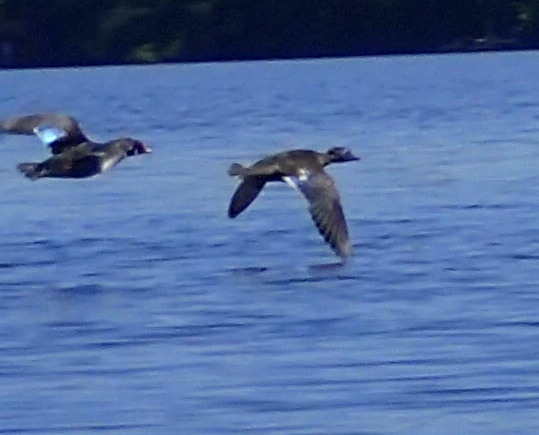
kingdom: Animalia
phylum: Chordata
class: Aves
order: Anseriformes
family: Anatidae
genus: Aix
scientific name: Aix sponsa
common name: Wood duck
